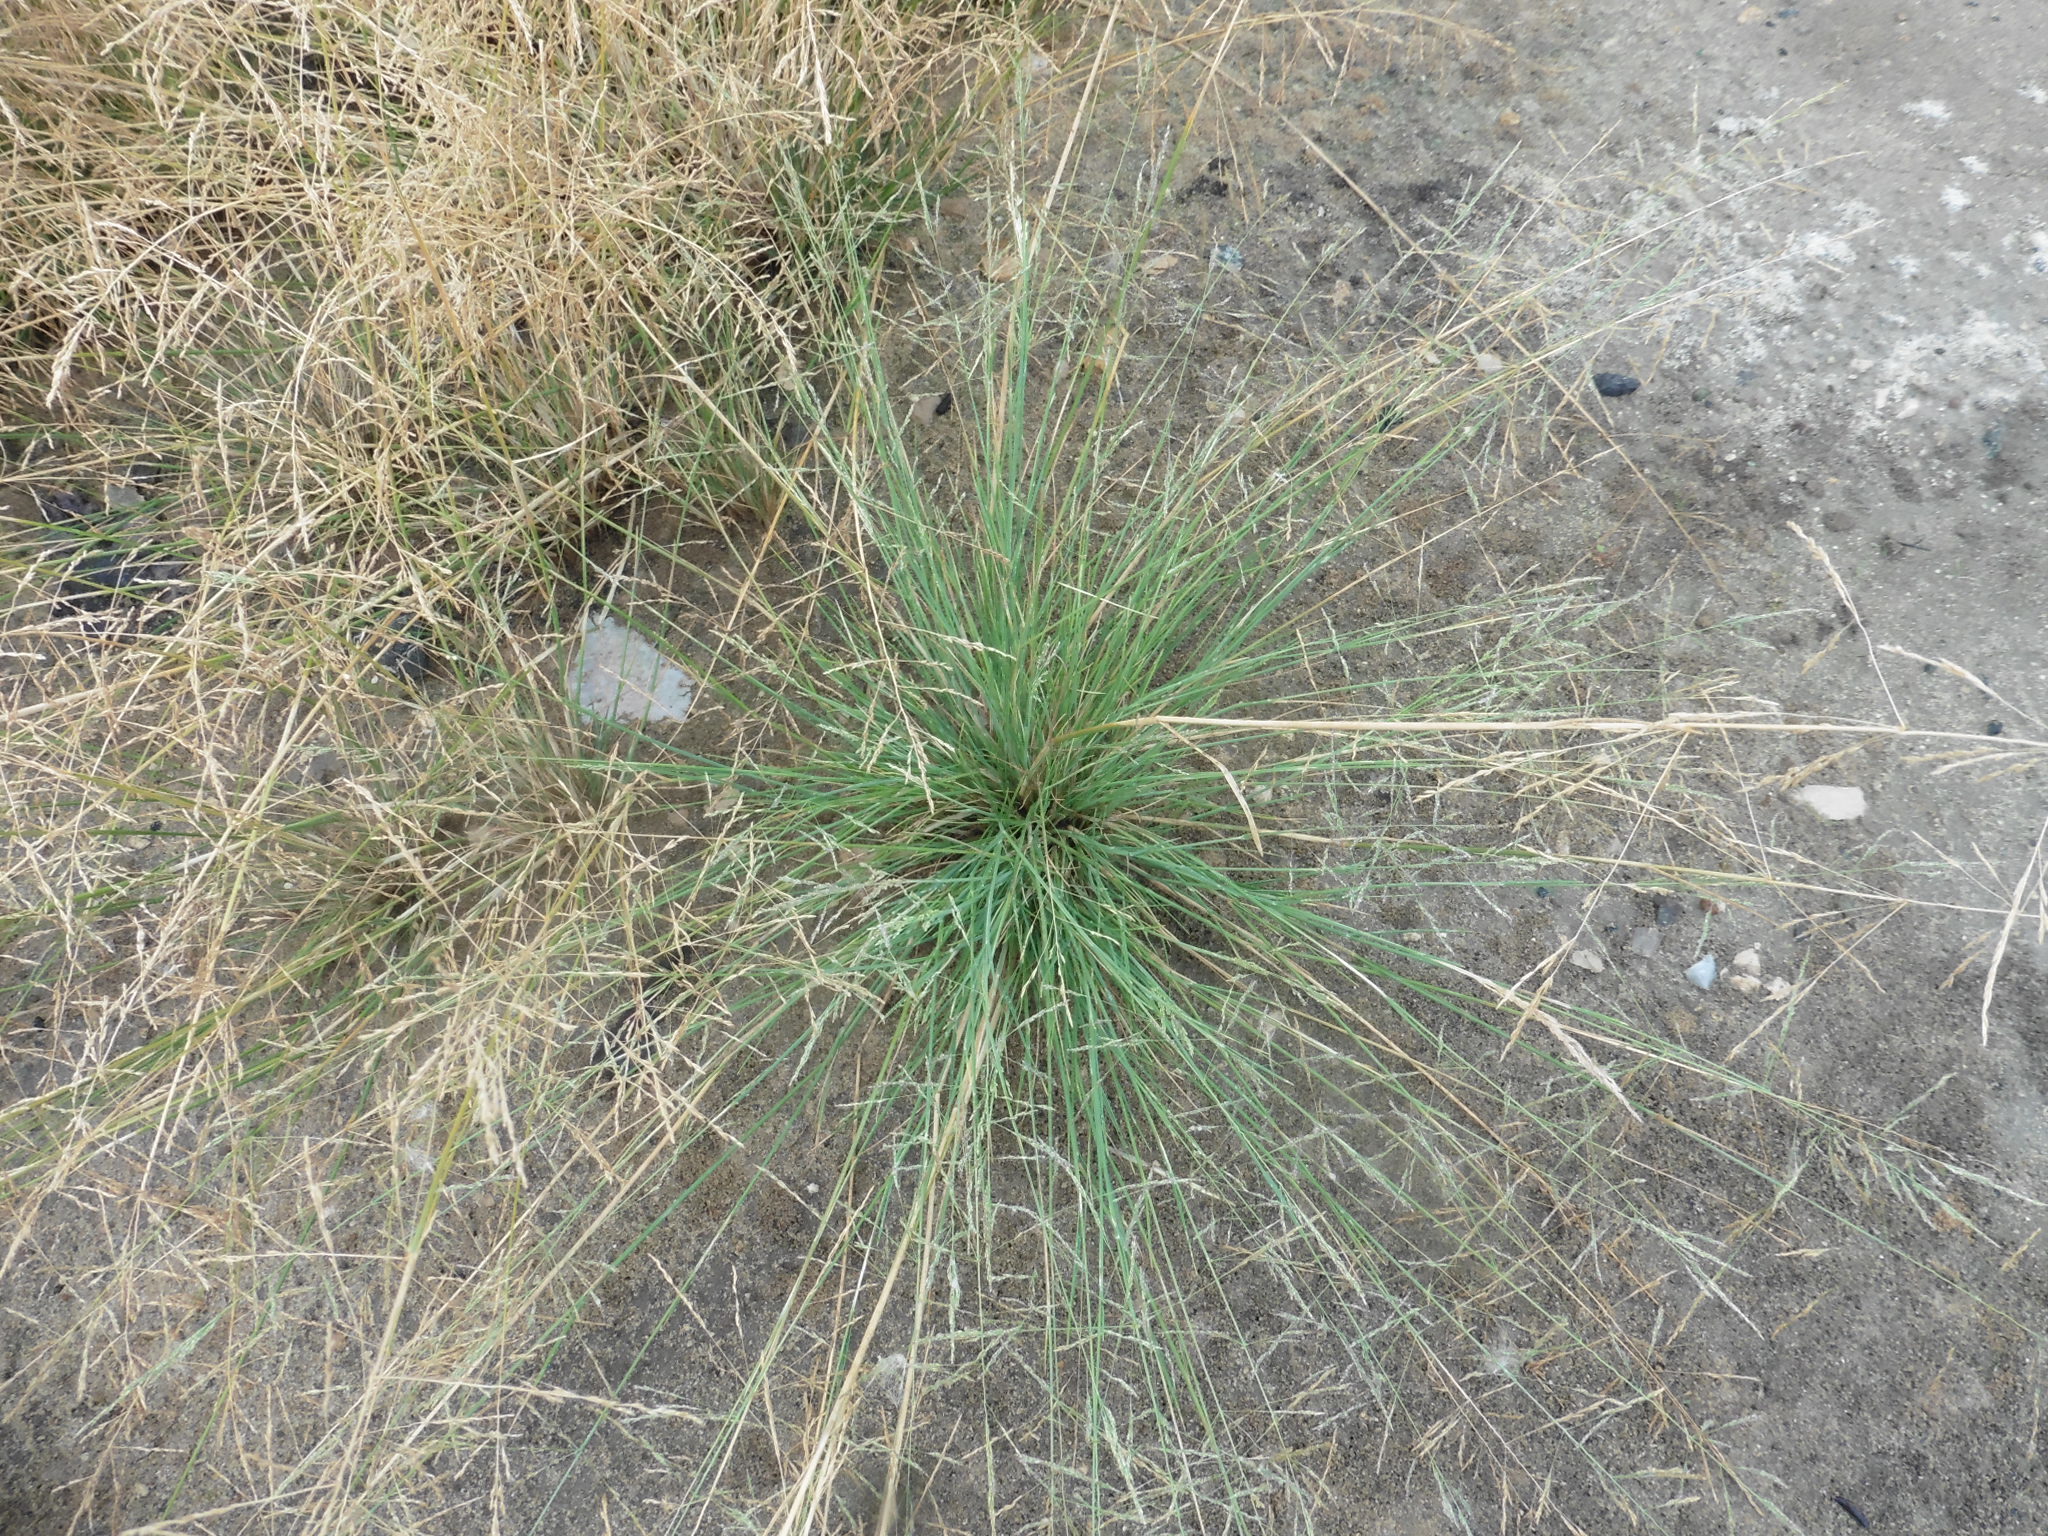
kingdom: Plantae
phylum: Tracheophyta
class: Liliopsida
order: Poales
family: Poaceae
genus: Puccinellia
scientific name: Puccinellia distans
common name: Weeping alkaligrass
